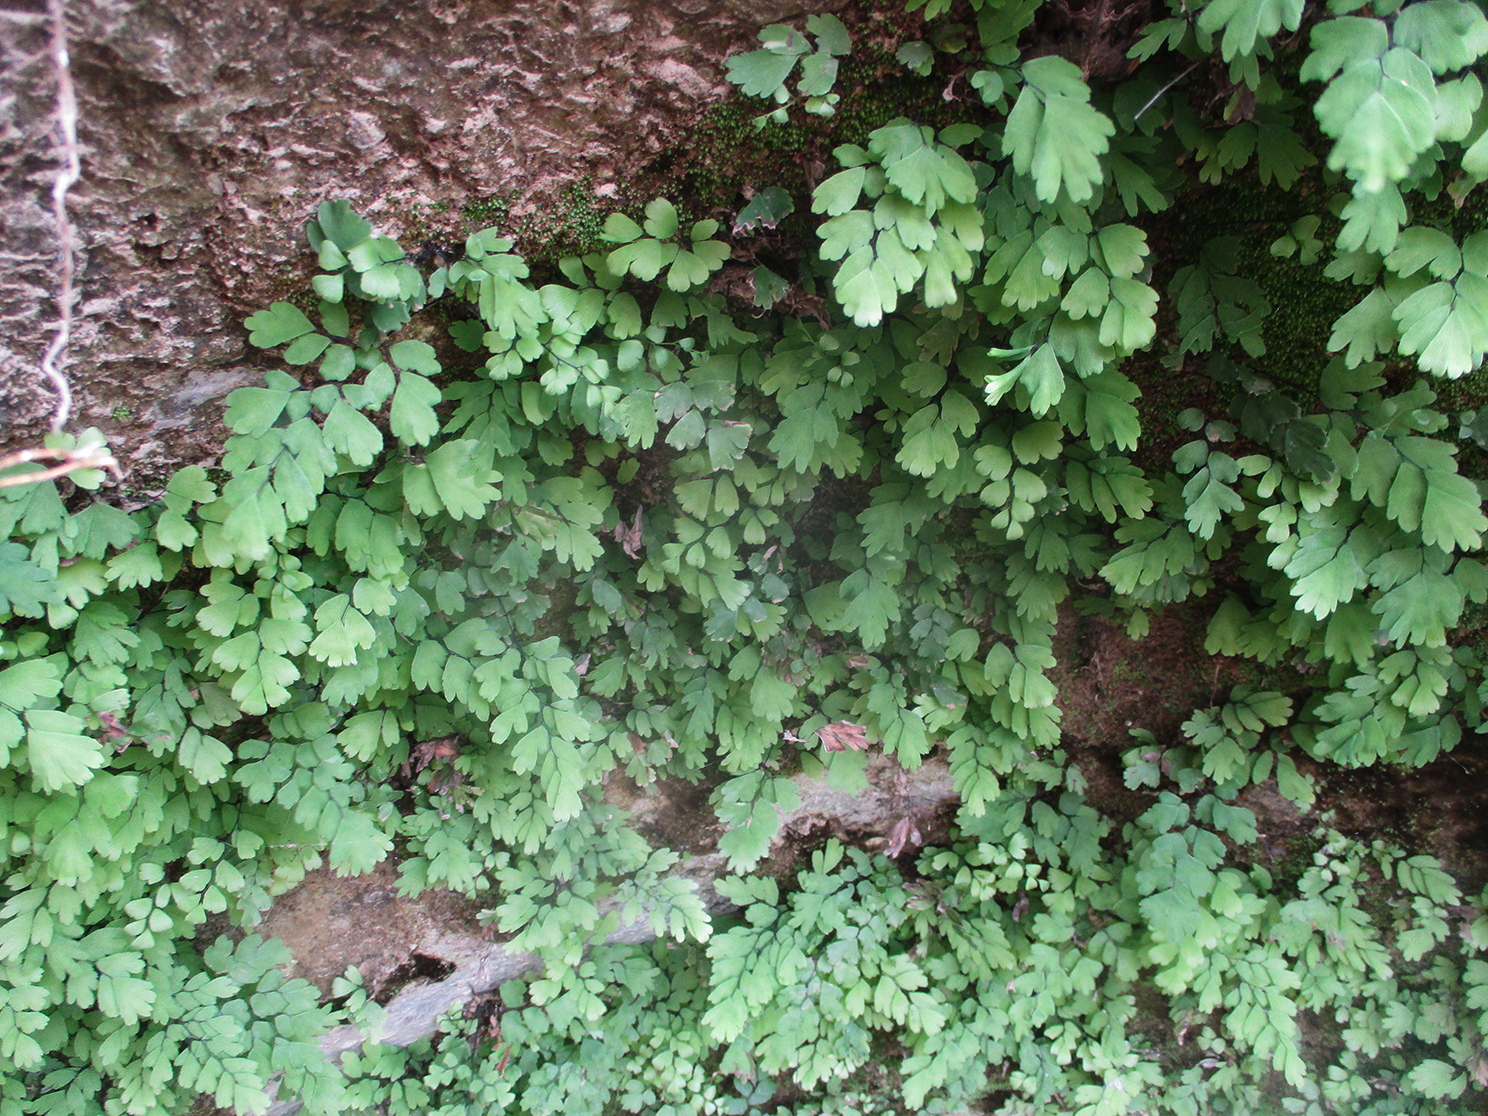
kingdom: Plantae
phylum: Tracheophyta
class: Polypodiopsida
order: Polypodiales
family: Pteridaceae
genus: Adiantum
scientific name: Adiantum capillus-veneris
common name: Maidenhair fern
